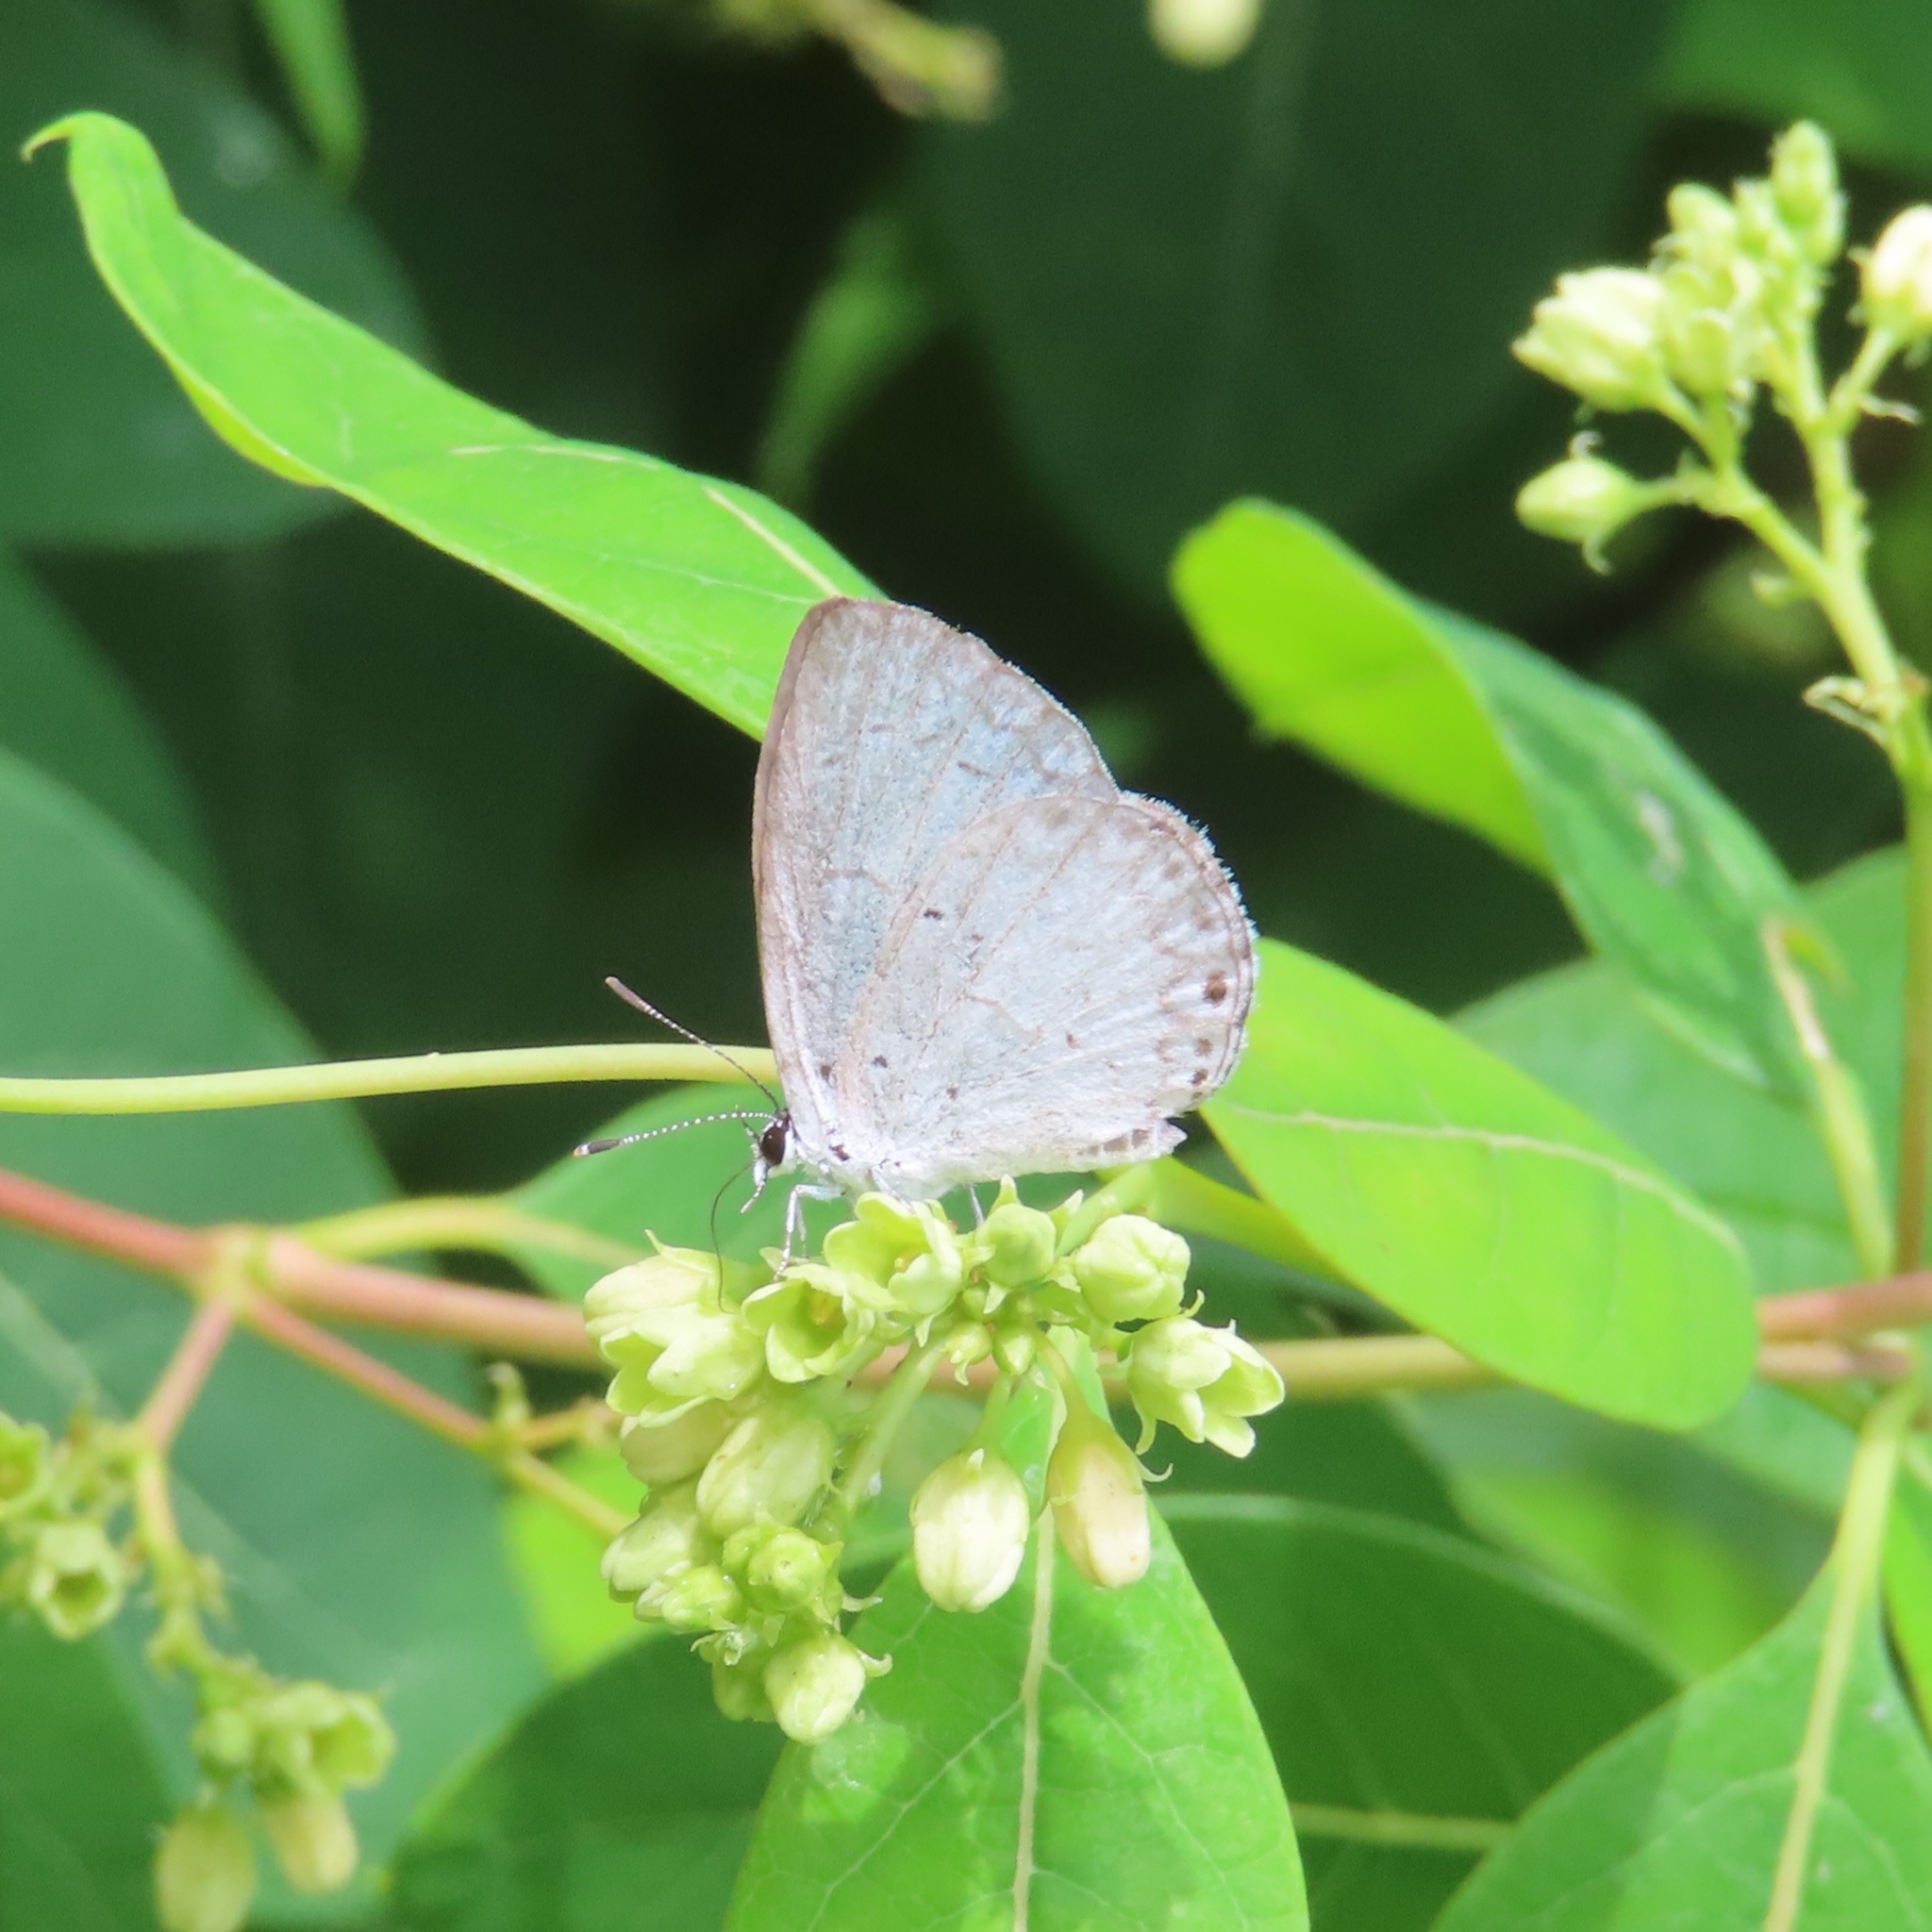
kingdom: Animalia
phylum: Arthropoda
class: Insecta
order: Lepidoptera
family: Lycaenidae
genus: Cyaniris
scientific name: Cyaniris neglecta
